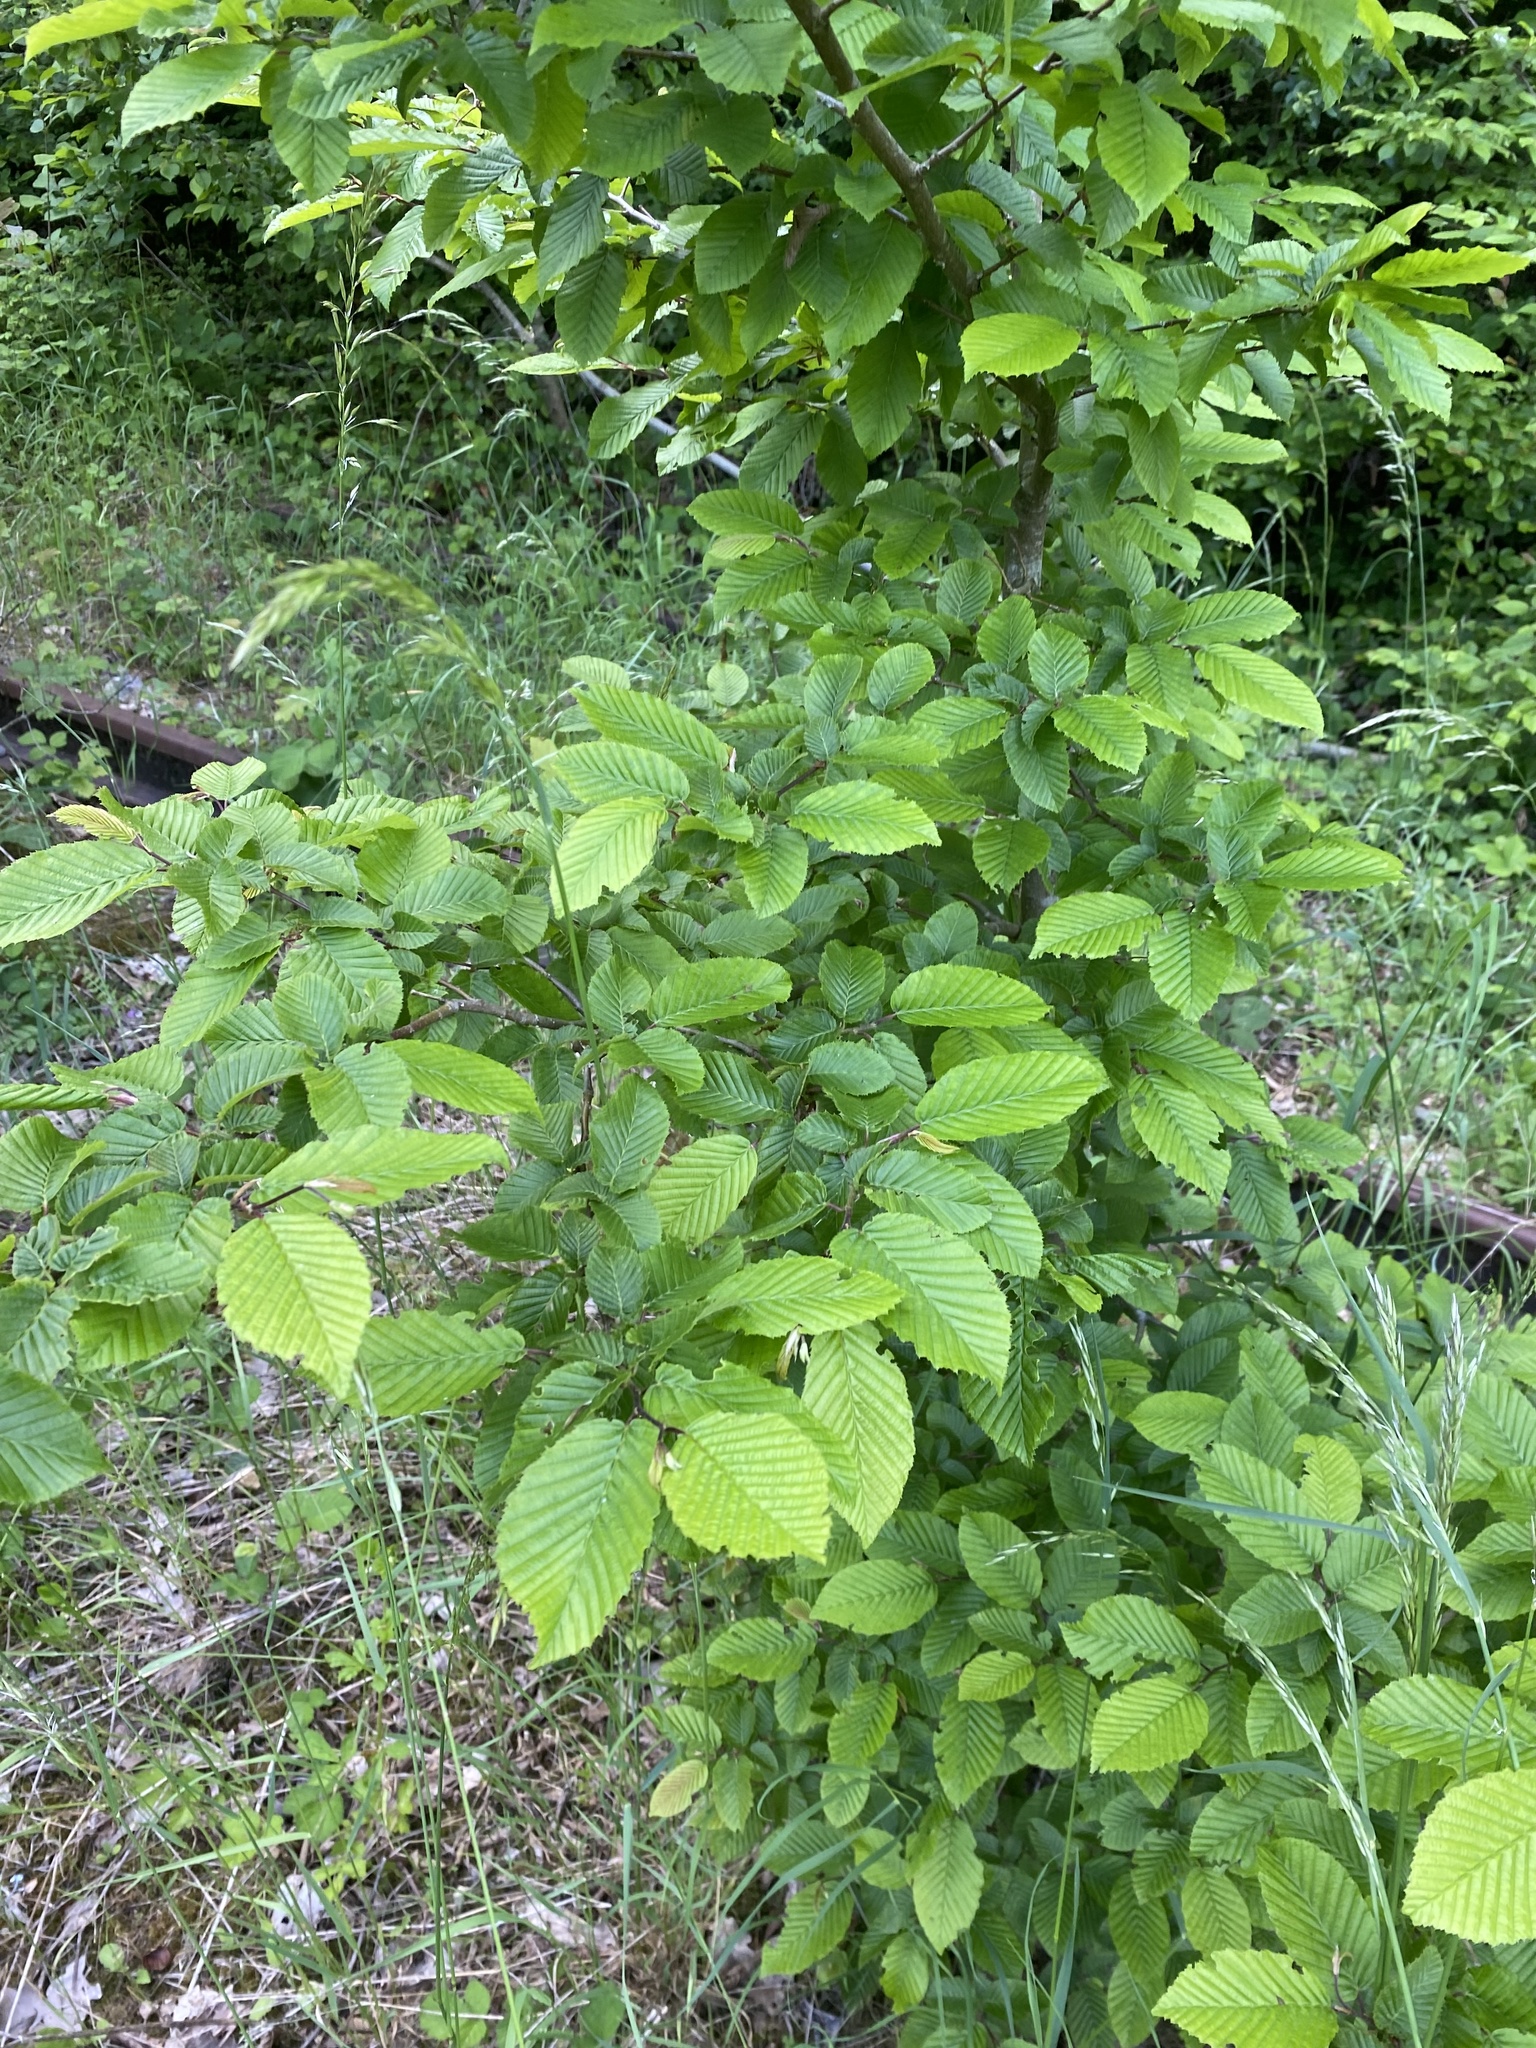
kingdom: Plantae
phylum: Tracheophyta
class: Magnoliopsida
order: Fagales
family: Betulaceae
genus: Carpinus
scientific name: Carpinus betulus
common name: Hornbeam
